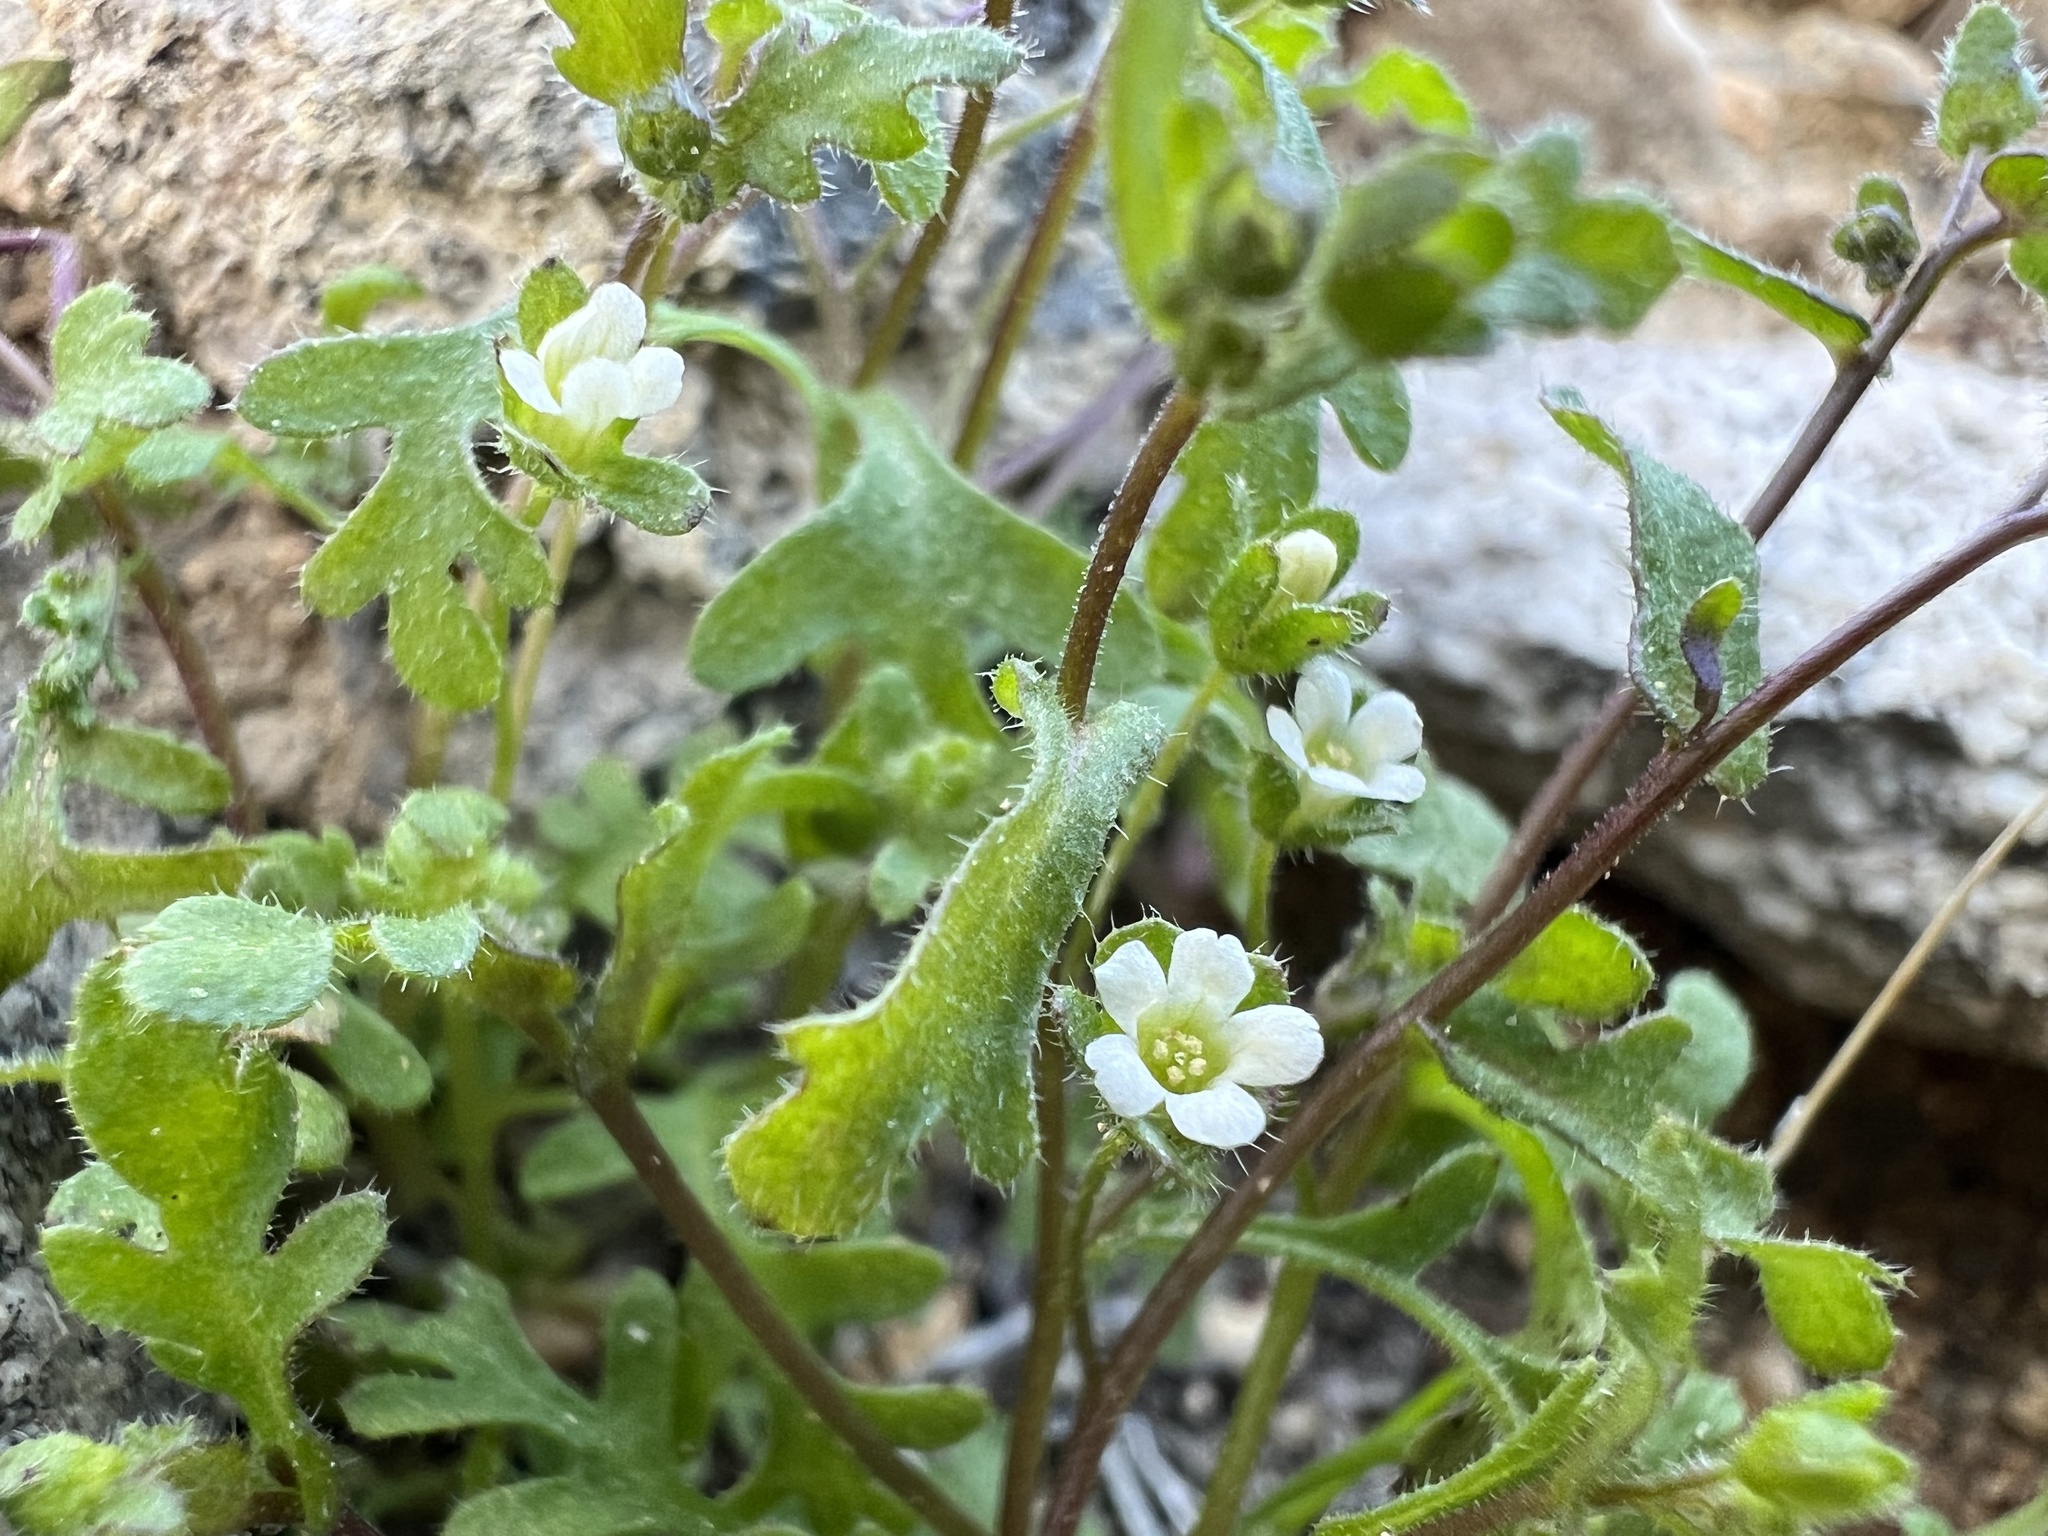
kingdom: Plantae
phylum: Tracheophyta
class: Magnoliopsida
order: Boraginales
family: Hydrophyllaceae
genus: Eucrypta
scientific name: Eucrypta micrantha
